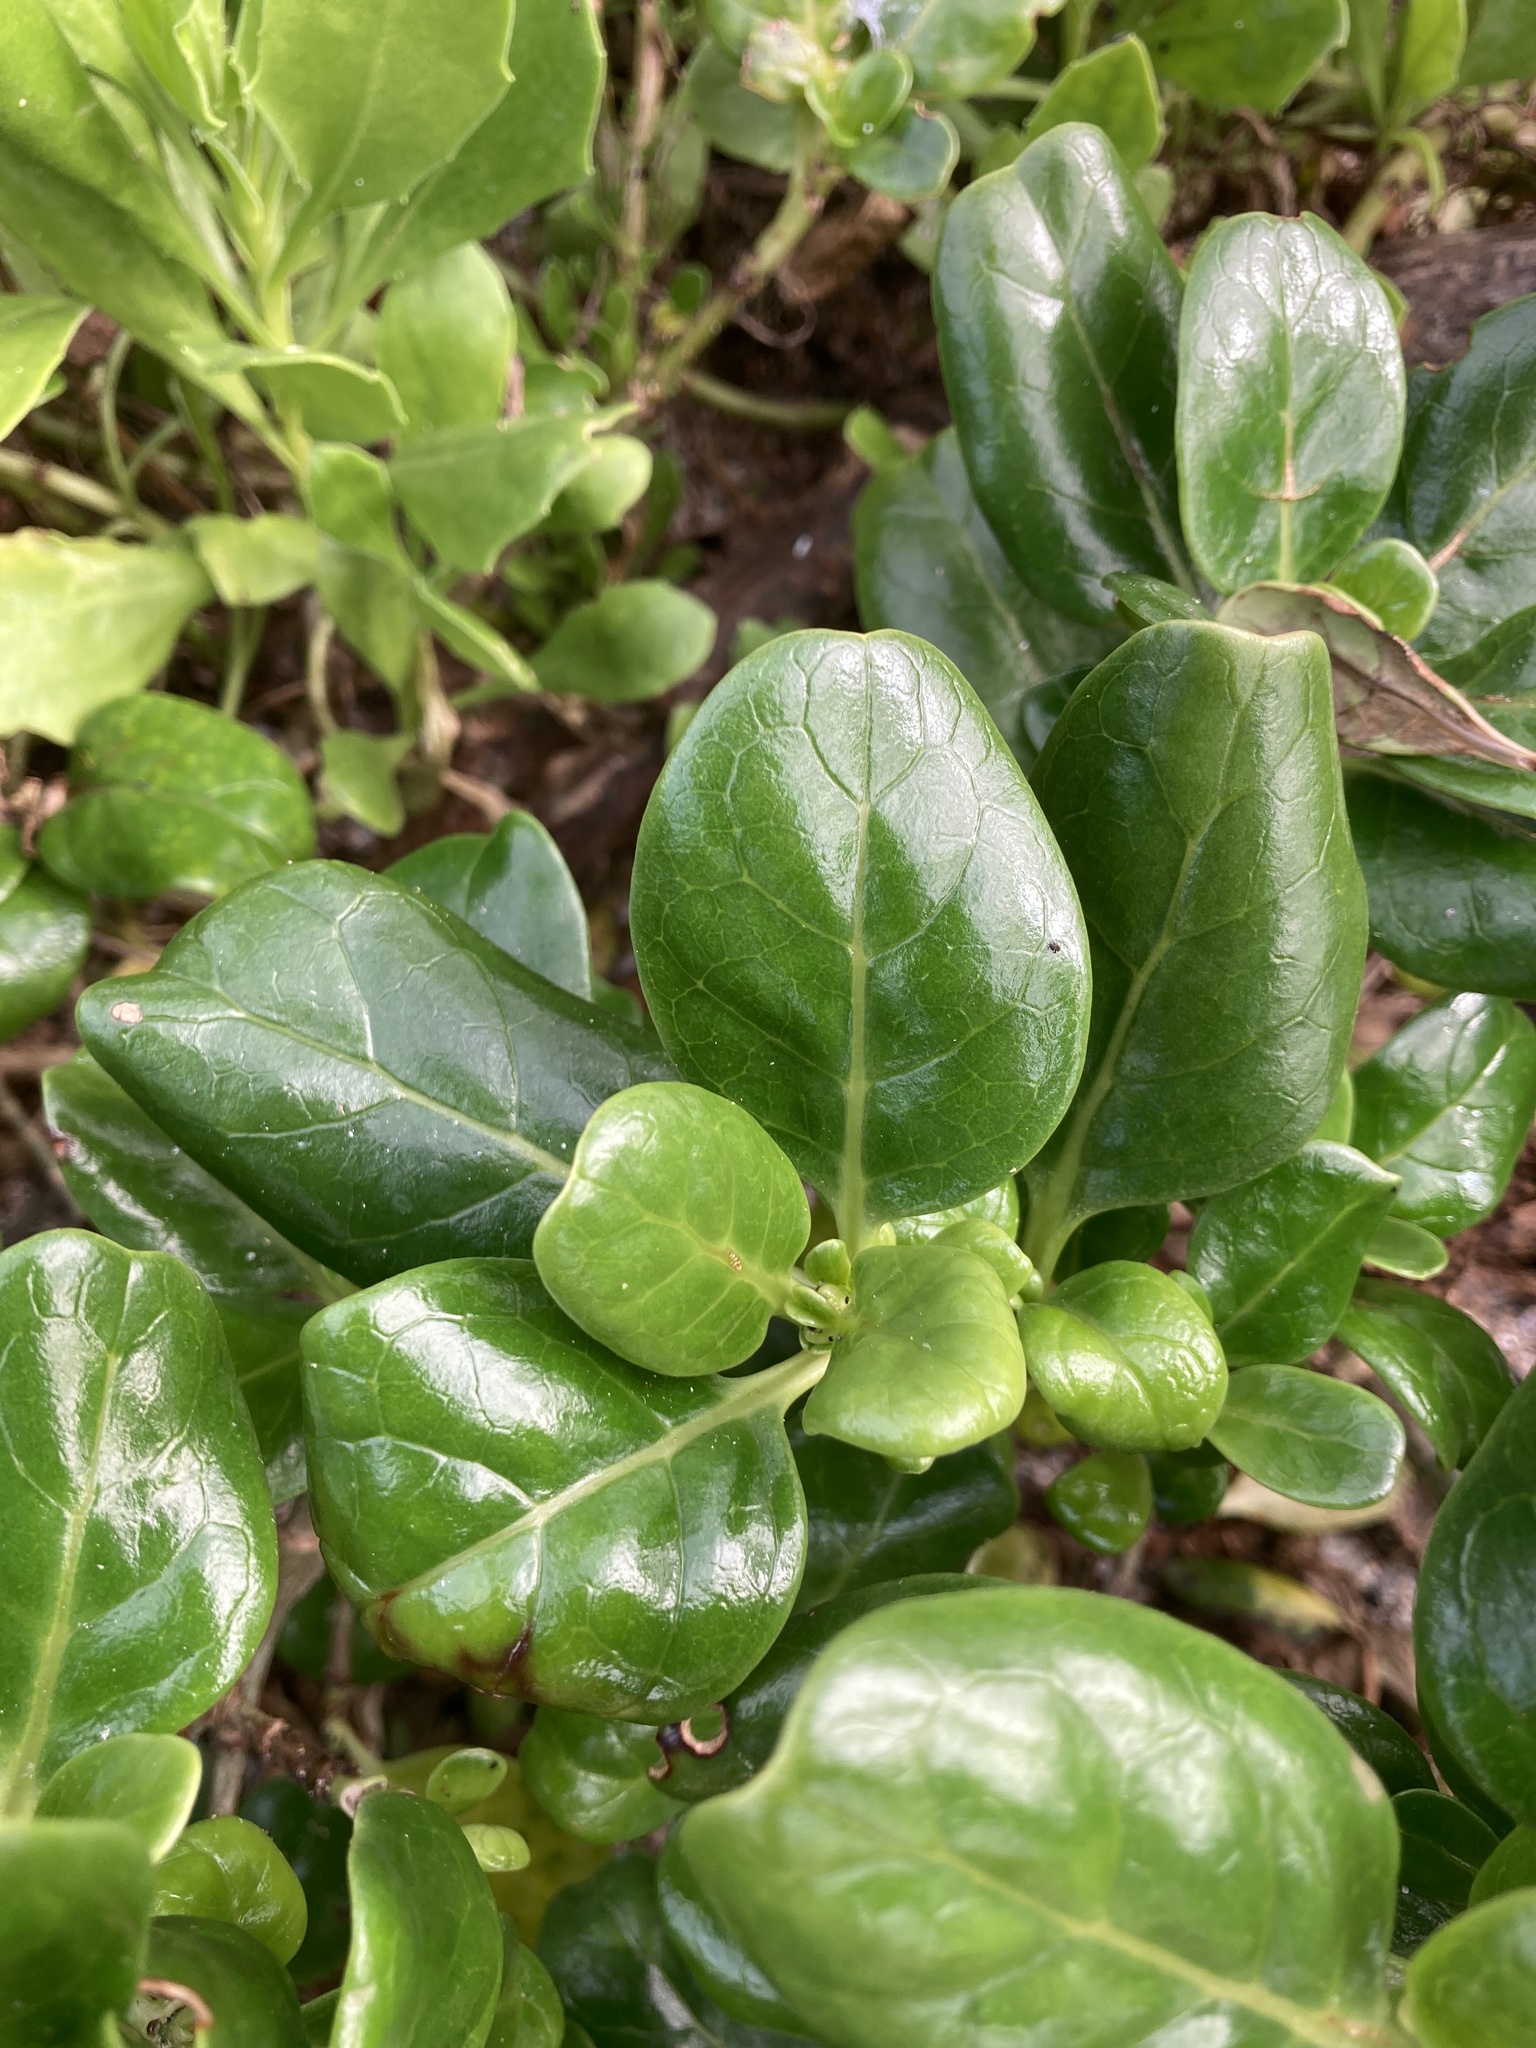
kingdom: Plantae
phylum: Tracheophyta
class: Magnoliopsida
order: Gentianales
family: Rubiaceae
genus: Coprosma
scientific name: Coprosma repens
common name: Tree bedstraw
